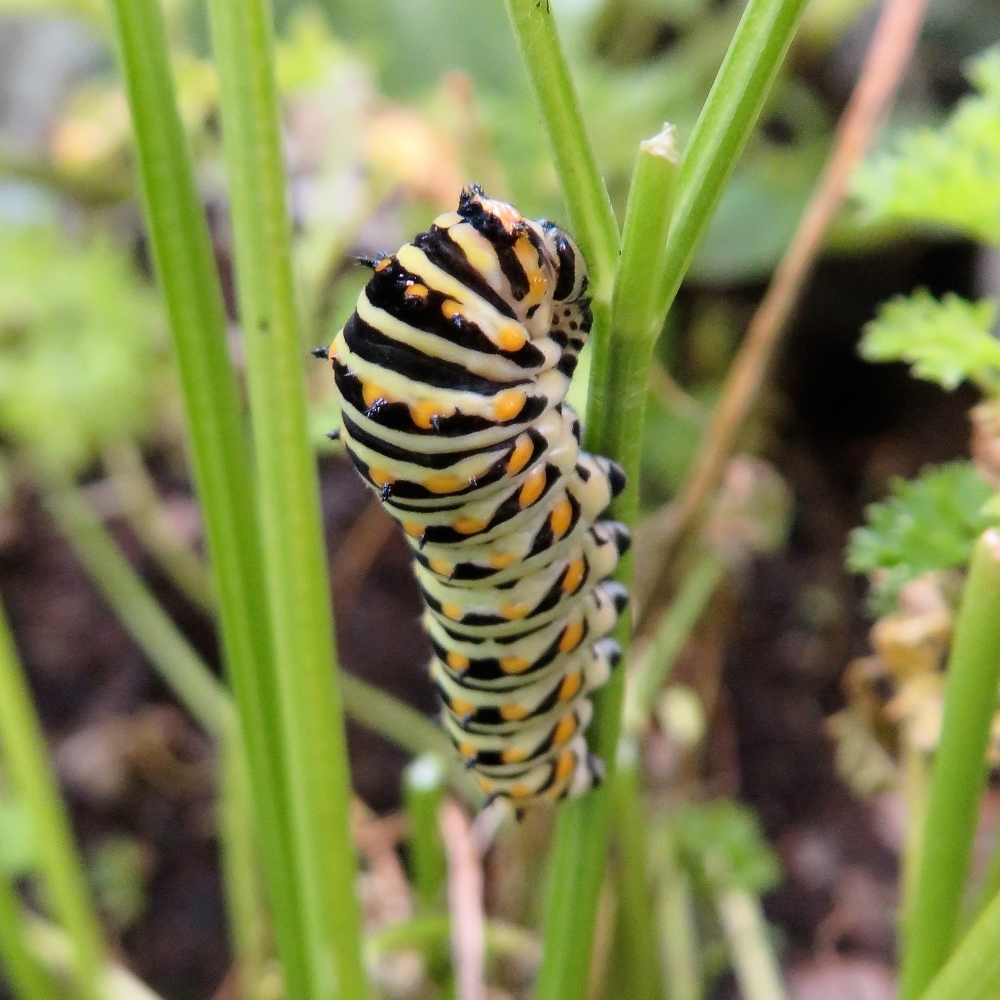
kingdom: Animalia
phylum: Arthropoda
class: Insecta
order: Lepidoptera
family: Papilionidae
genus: Papilio
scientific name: Papilio polyxenes
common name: Black swallowtail
